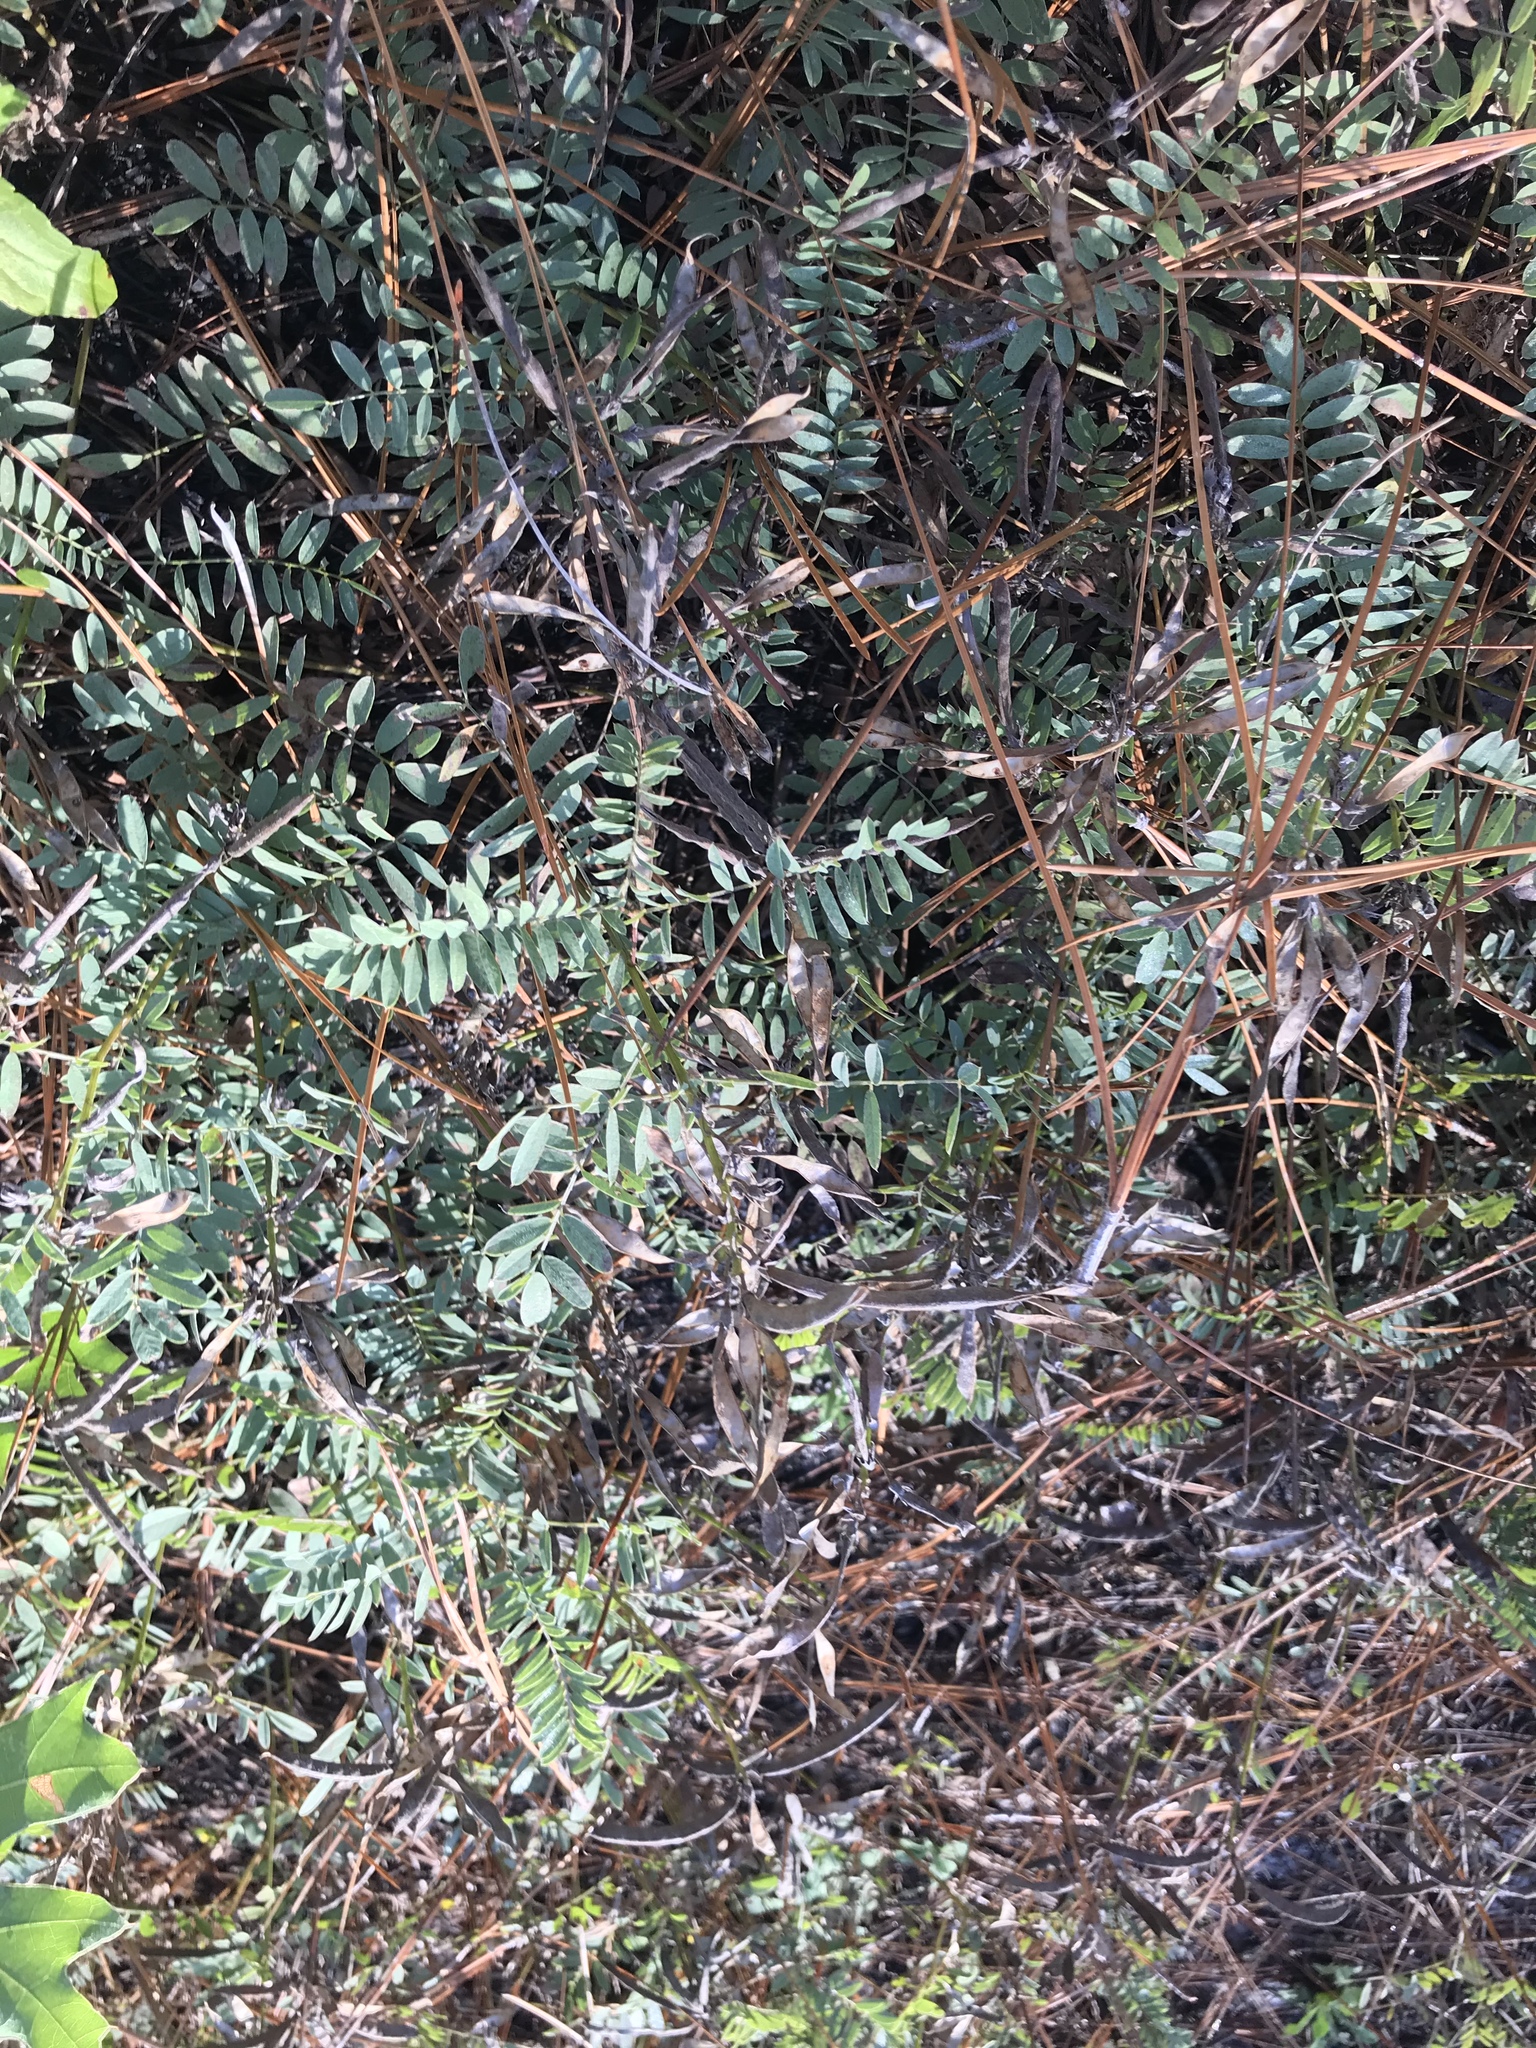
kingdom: Plantae
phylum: Tracheophyta
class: Magnoliopsida
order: Fabales
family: Fabaceae
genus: Tephrosia
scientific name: Tephrosia virginiana
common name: Rabbit-pea
